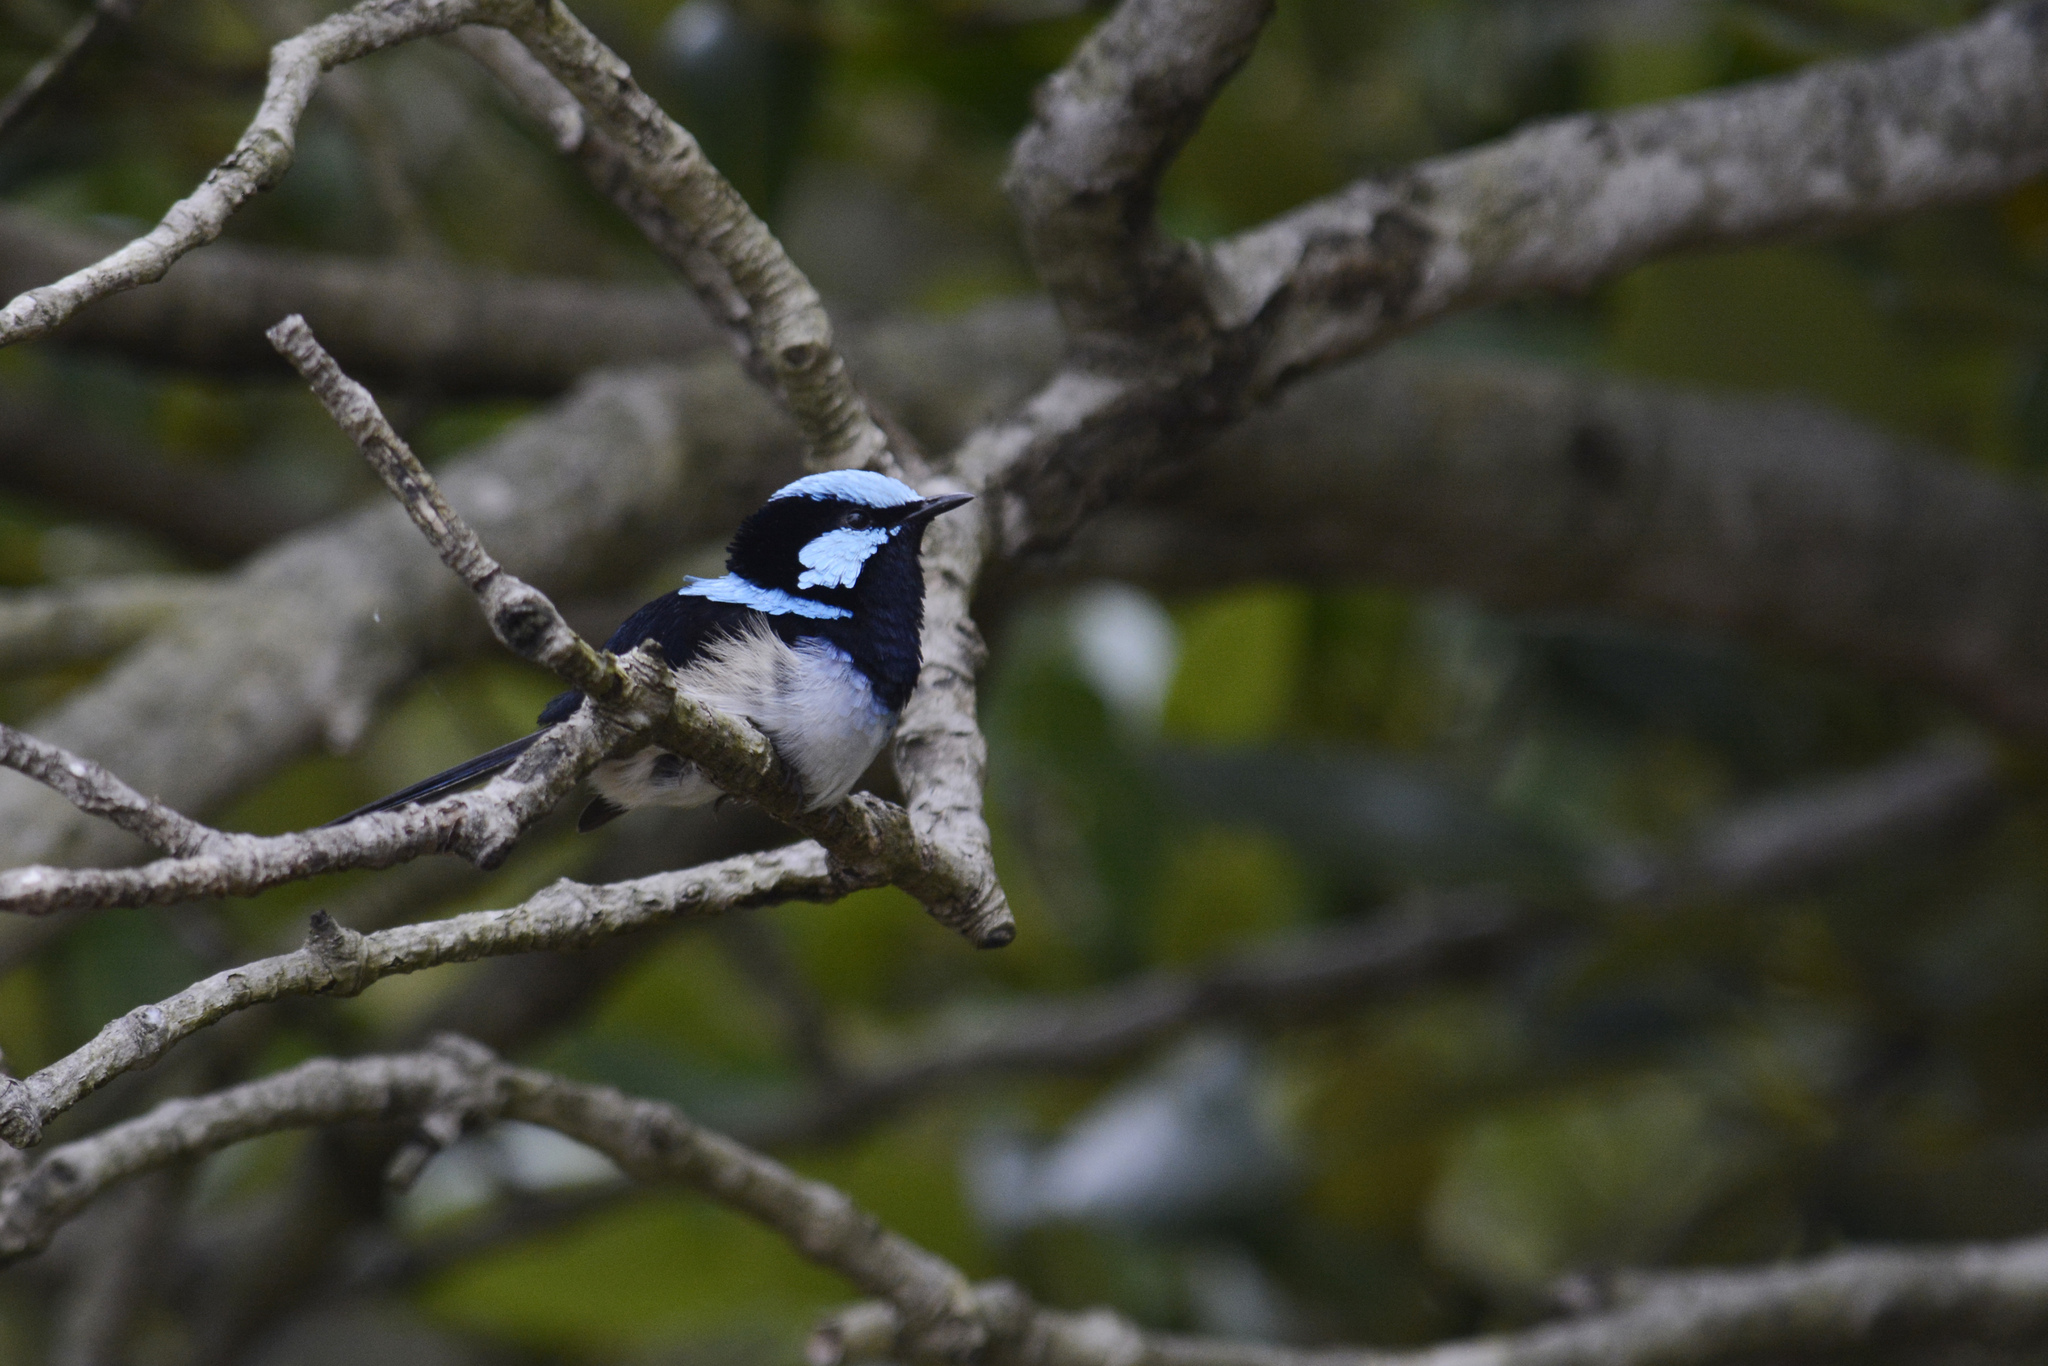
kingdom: Animalia
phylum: Chordata
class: Aves
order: Passeriformes
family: Maluridae
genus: Malurus
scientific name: Malurus cyaneus
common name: Superb fairywren
